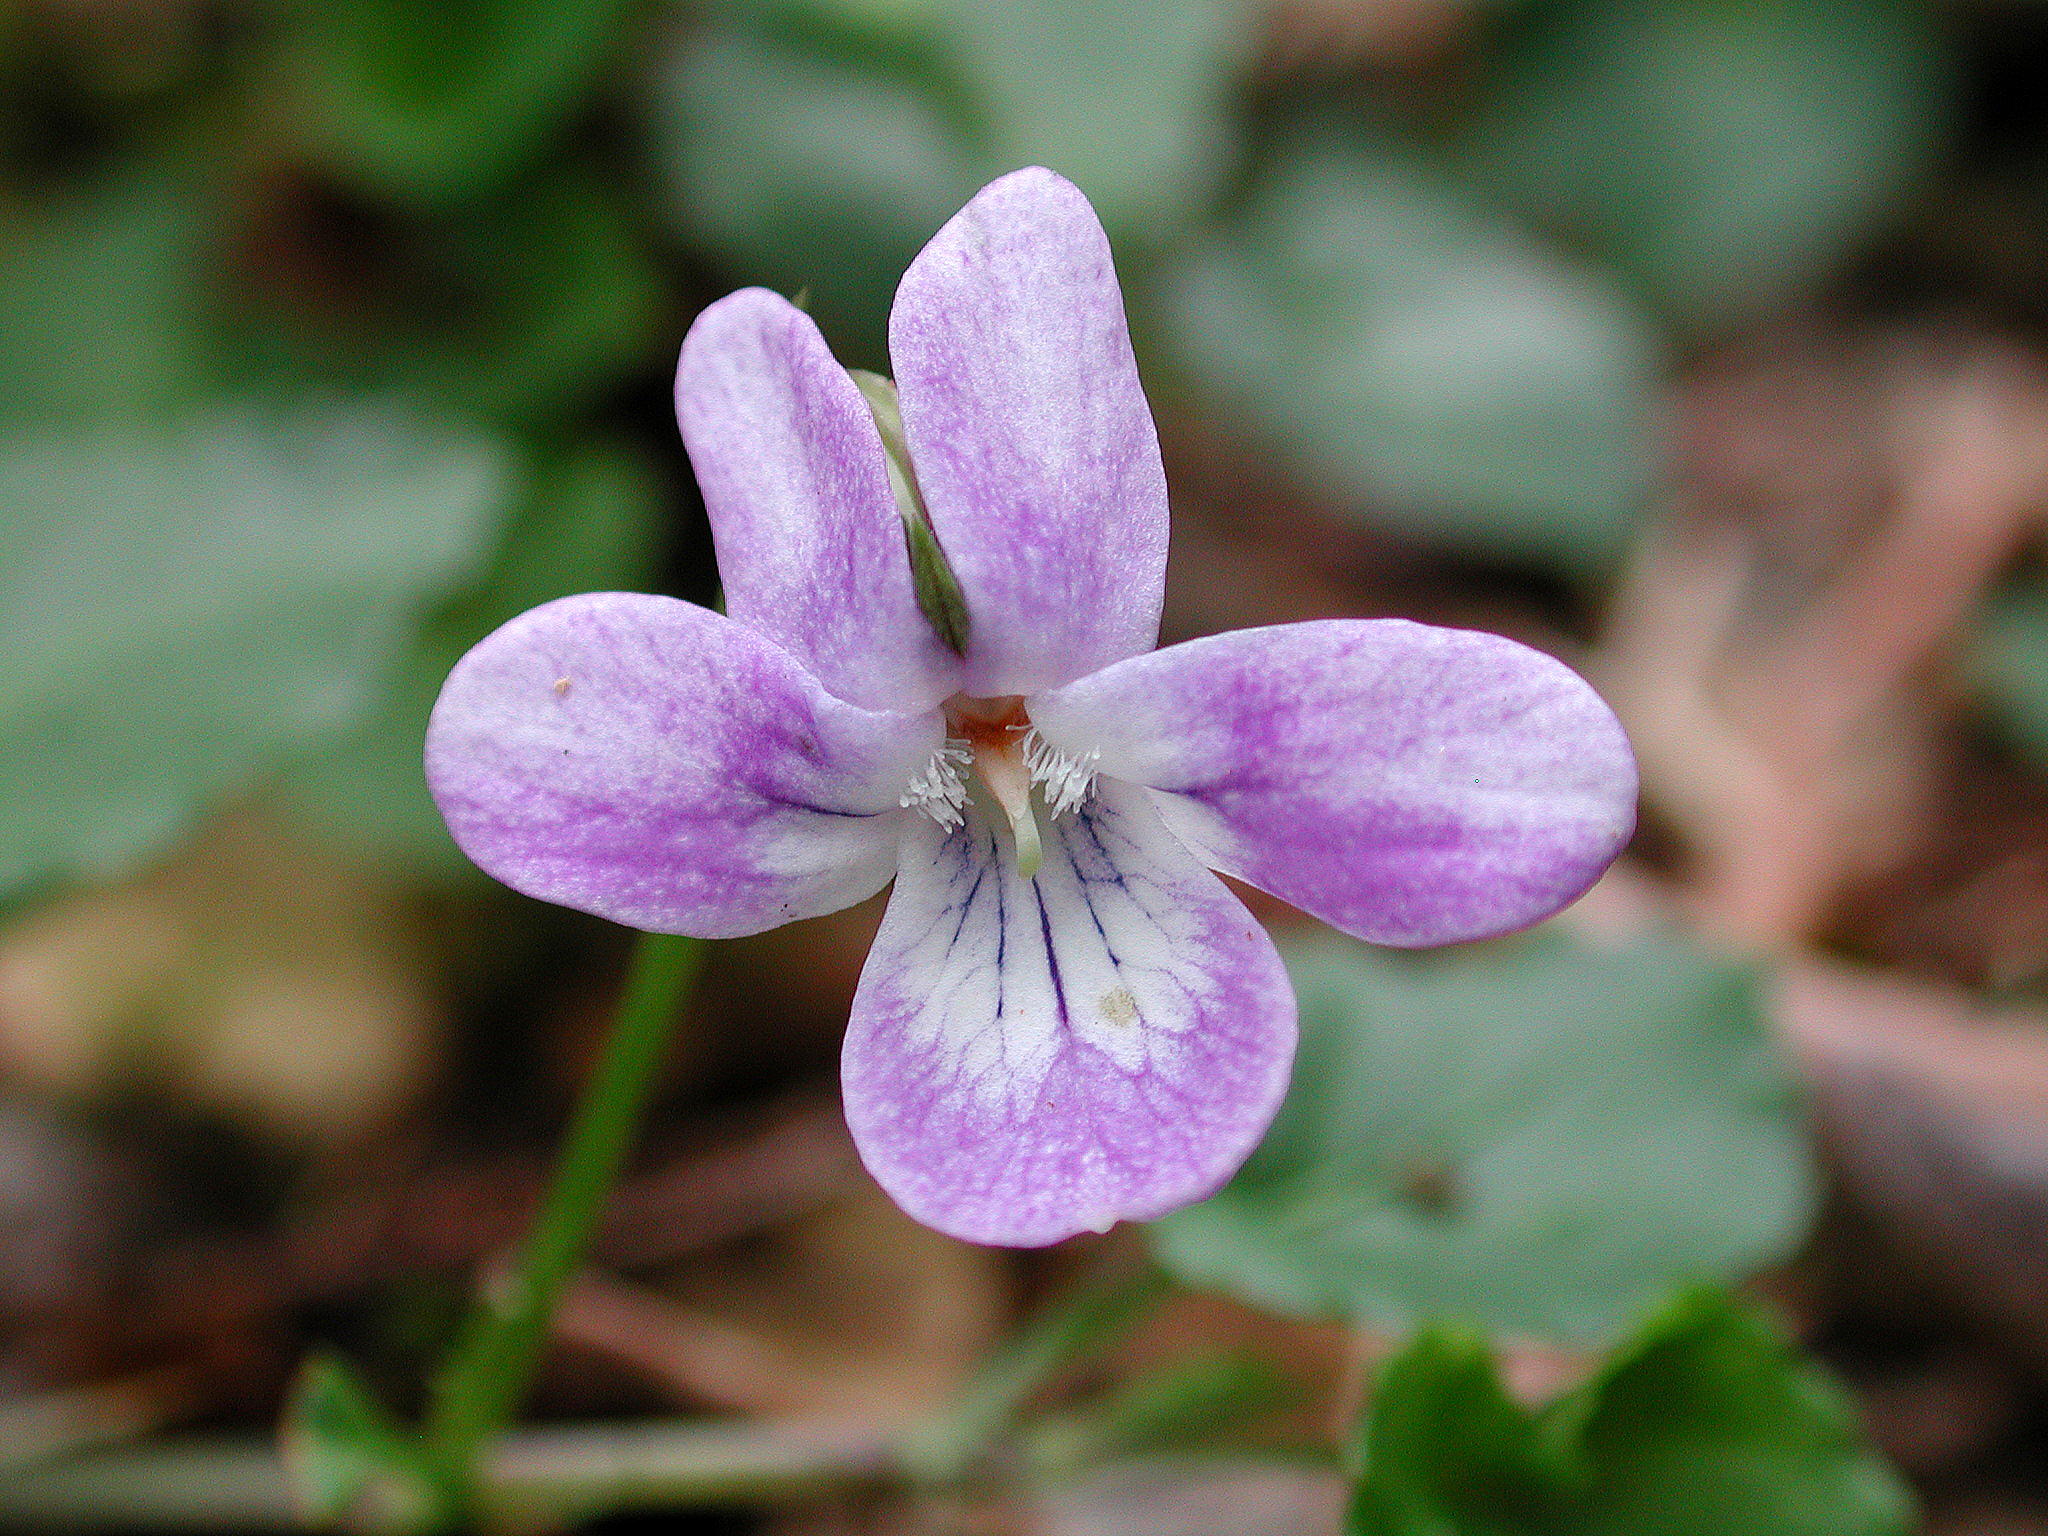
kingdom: Plantae
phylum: Tracheophyta
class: Magnoliopsida
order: Malpighiales
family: Violaceae
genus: Viola
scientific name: Viola anagae
